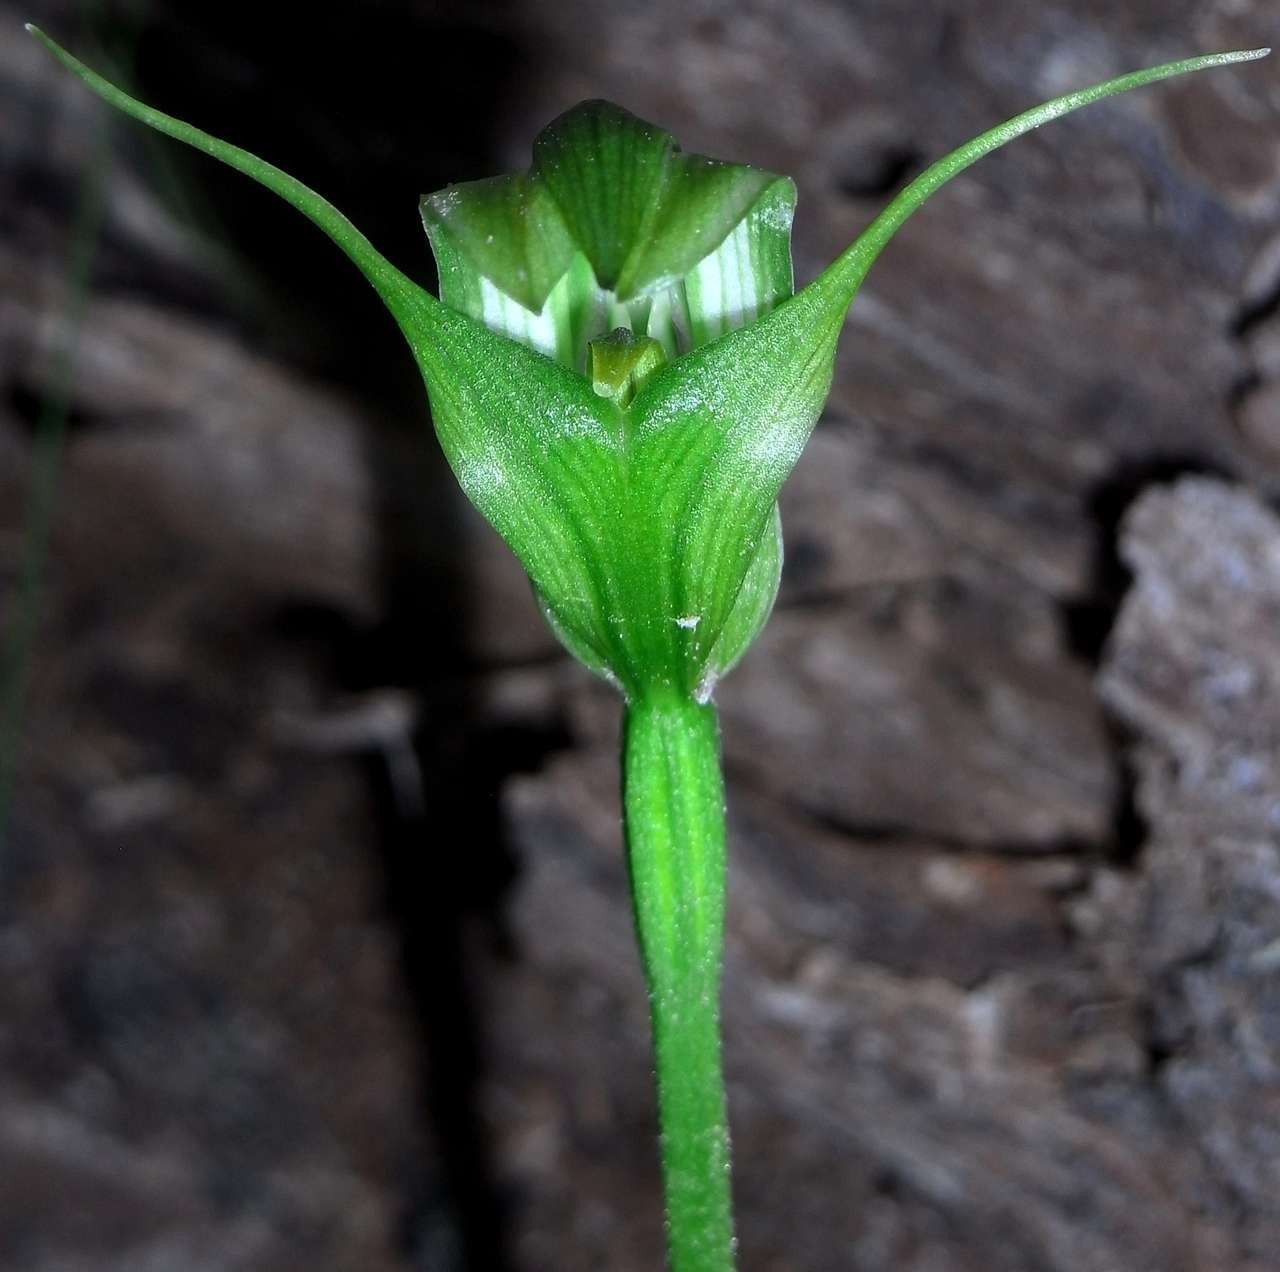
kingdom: Plantae
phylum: Tracheophyta
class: Liliopsida
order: Asparagales
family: Orchidaceae
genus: Pterostylis
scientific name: Pterostylis alpina
